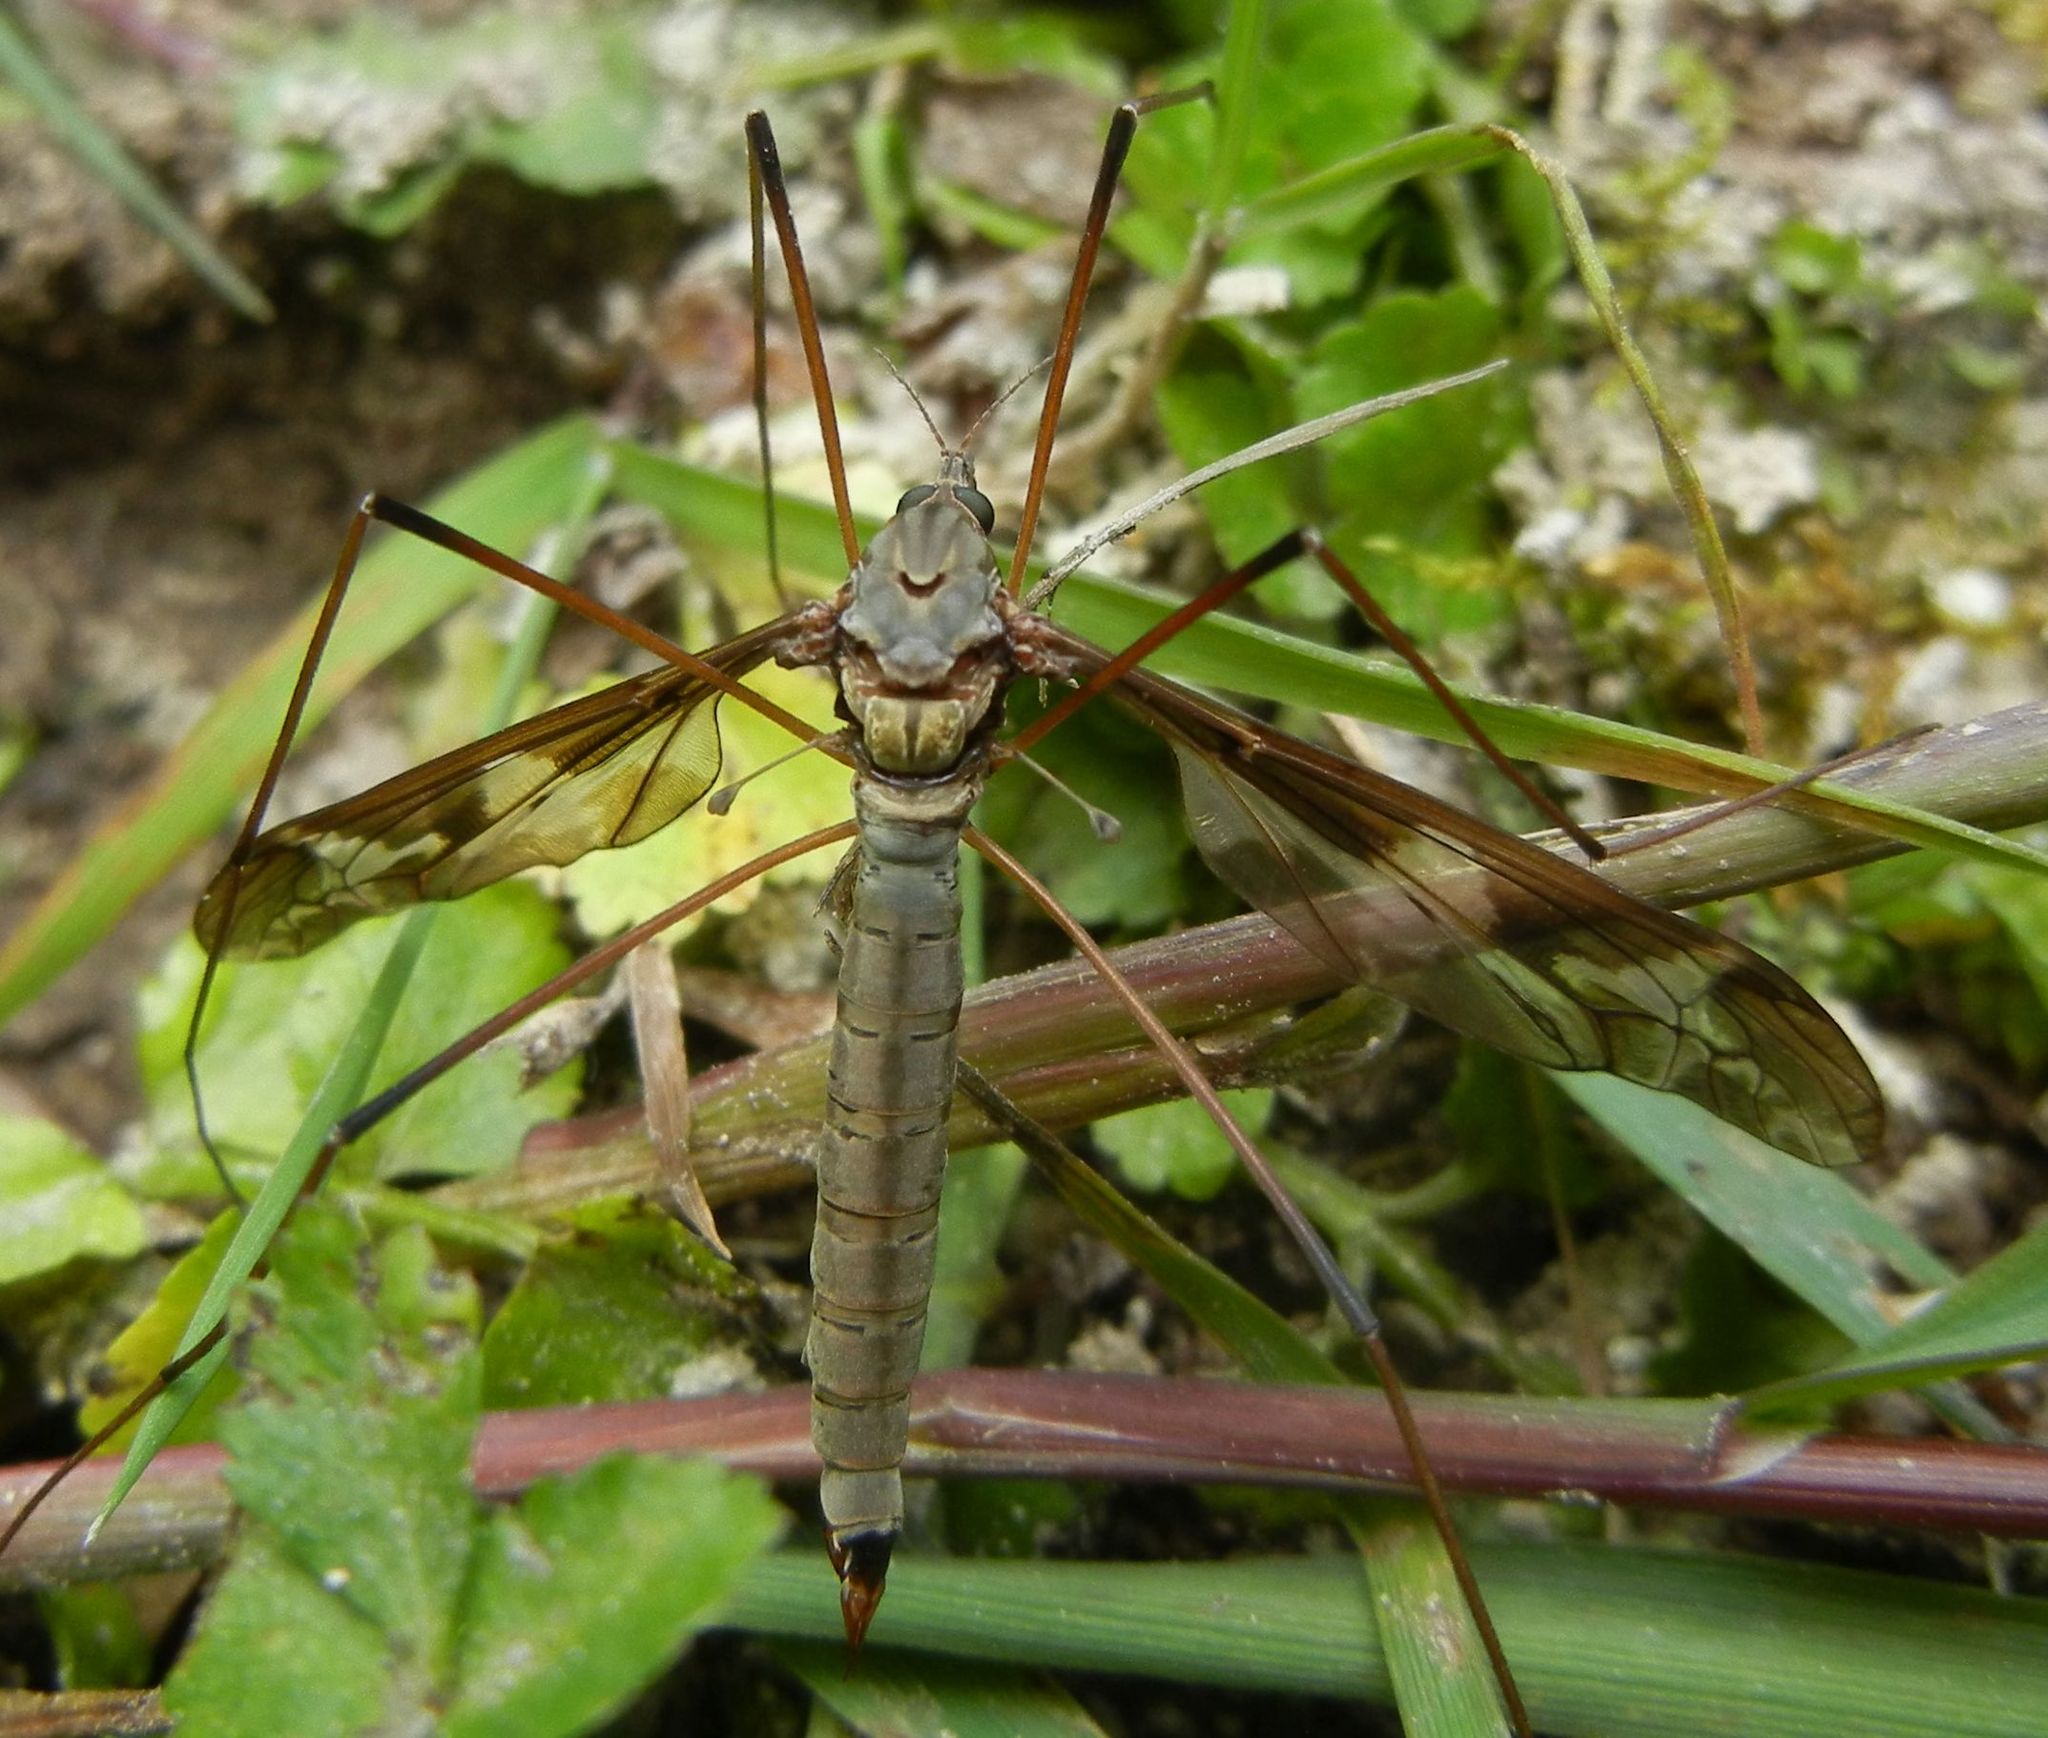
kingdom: Animalia
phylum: Arthropoda
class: Insecta
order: Diptera
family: Tipulidae
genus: Tipula
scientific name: Tipula maxima
